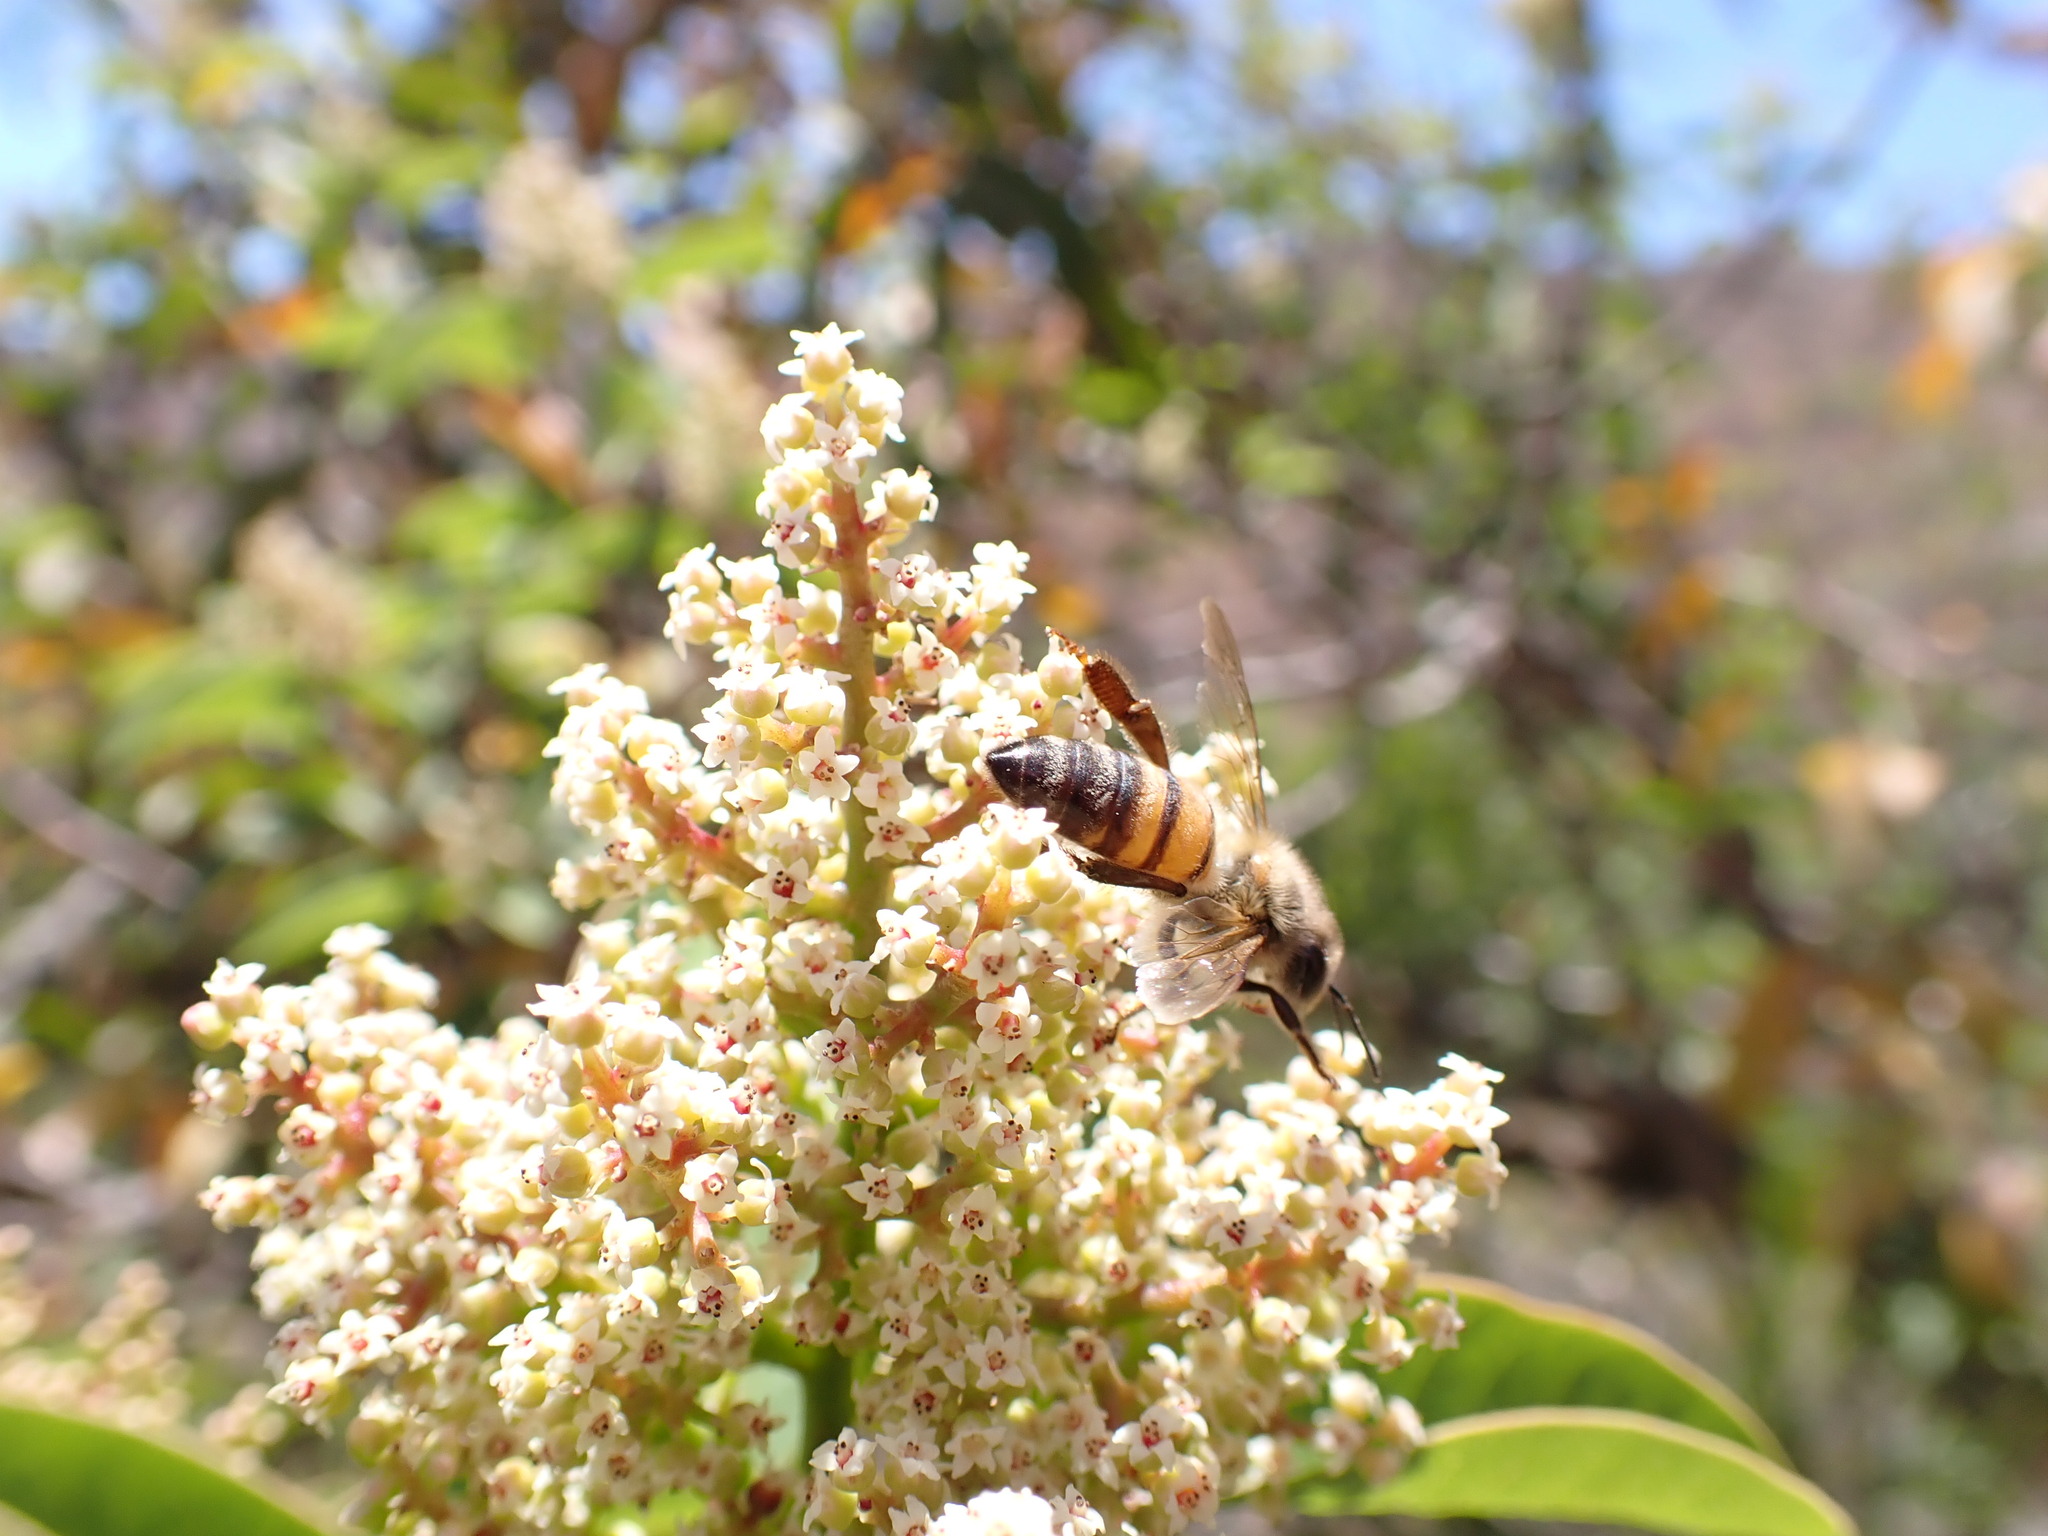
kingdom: Animalia
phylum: Arthropoda
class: Insecta
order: Hymenoptera
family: Apidae
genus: Apis
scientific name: Apis mellifera
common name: Honey bee
